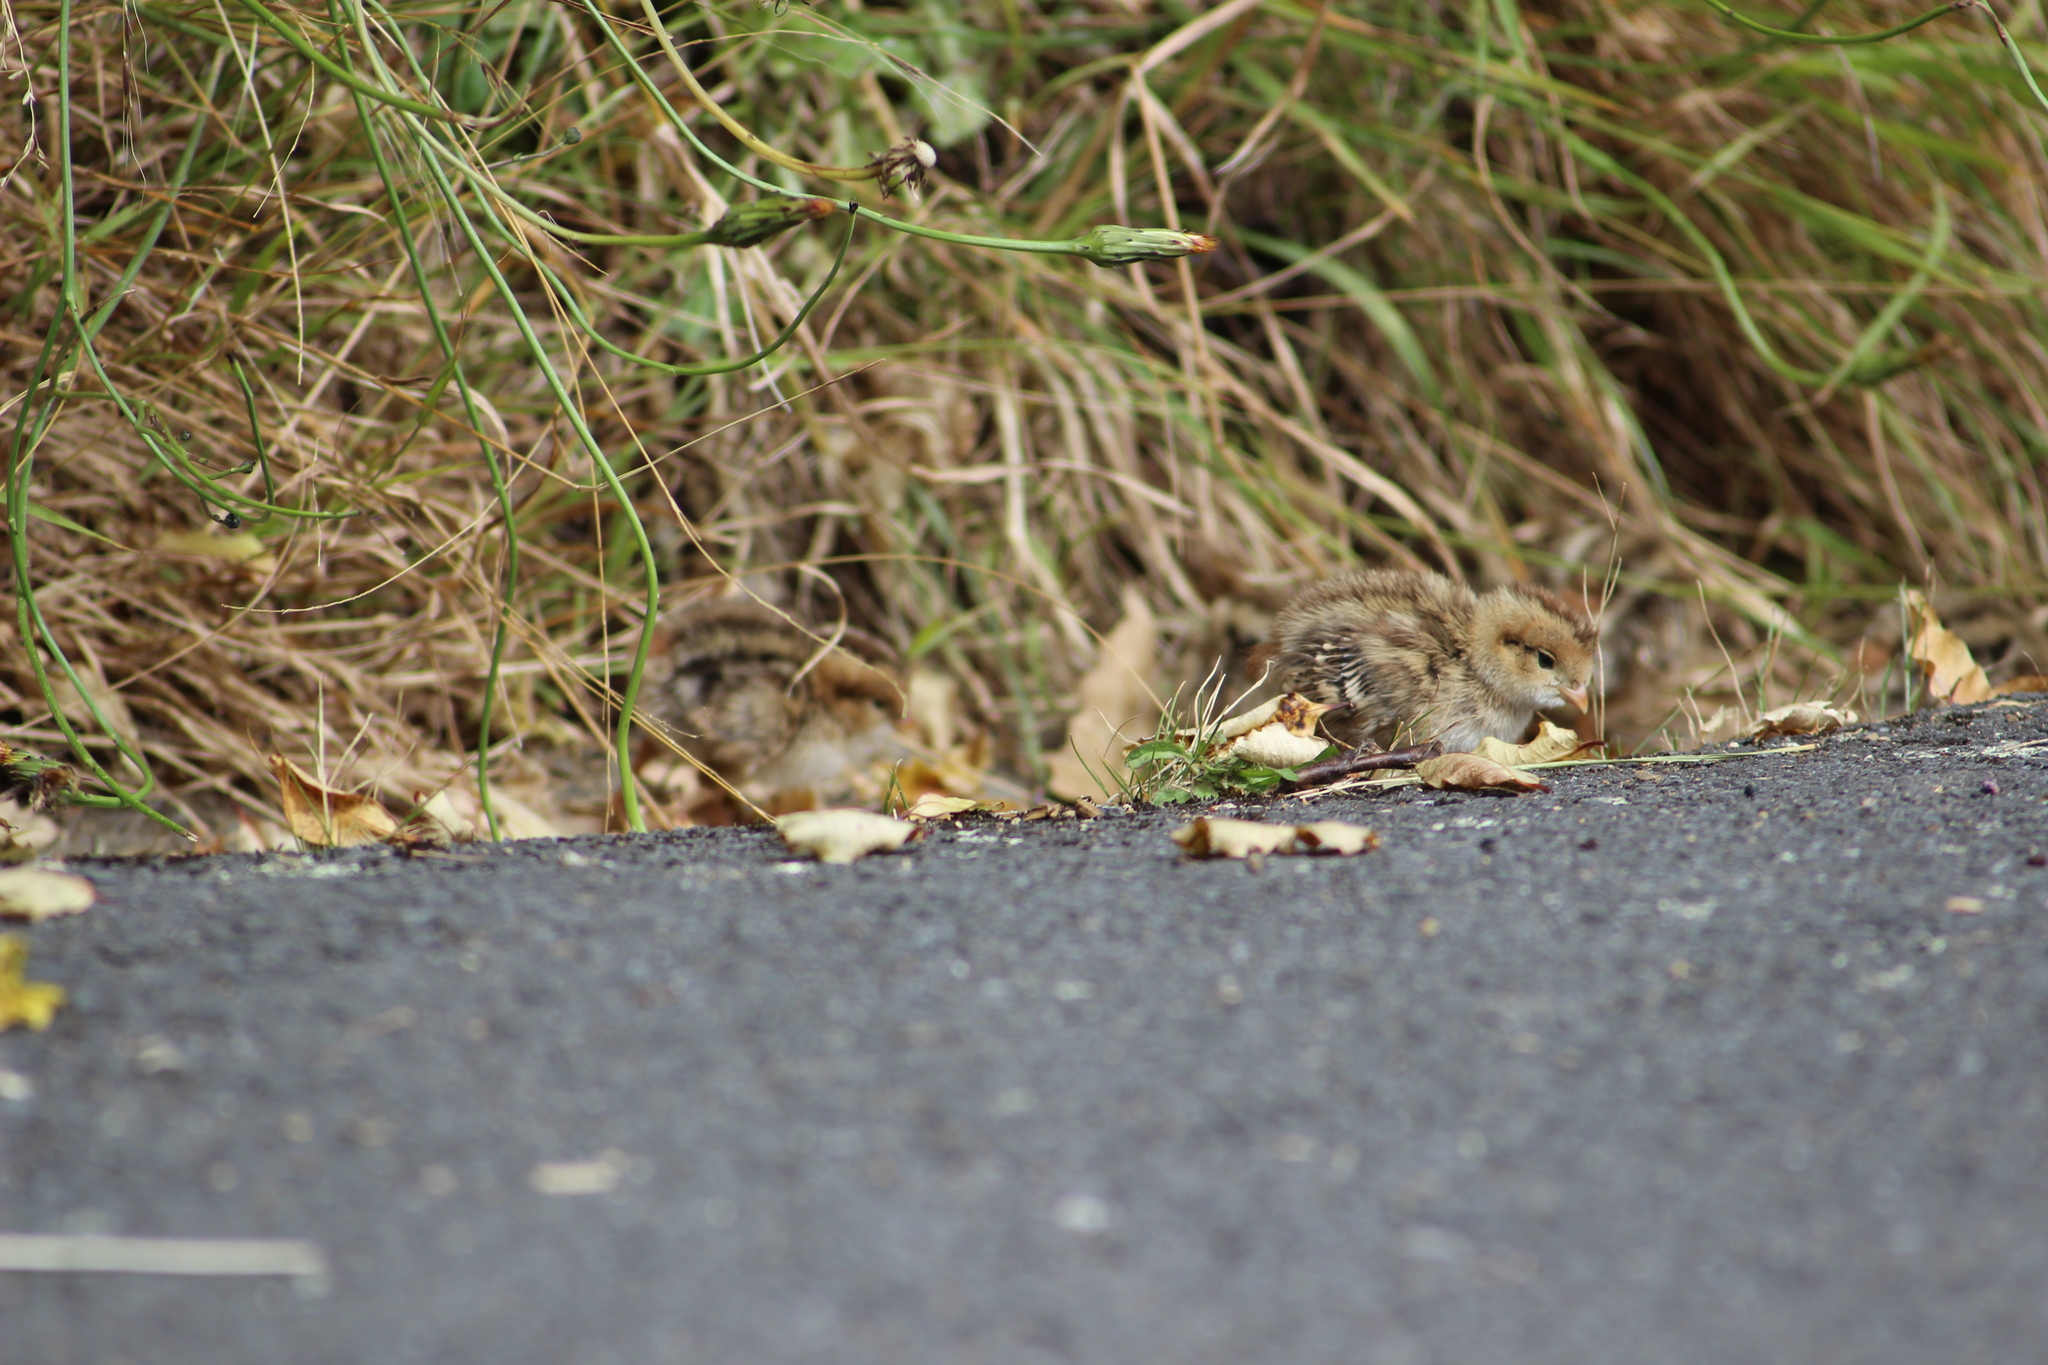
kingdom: Animalia
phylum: Chordata
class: Aves
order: Galliformes
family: Odontophoridae
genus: Callipepla
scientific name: Callipepla californica
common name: California quail
